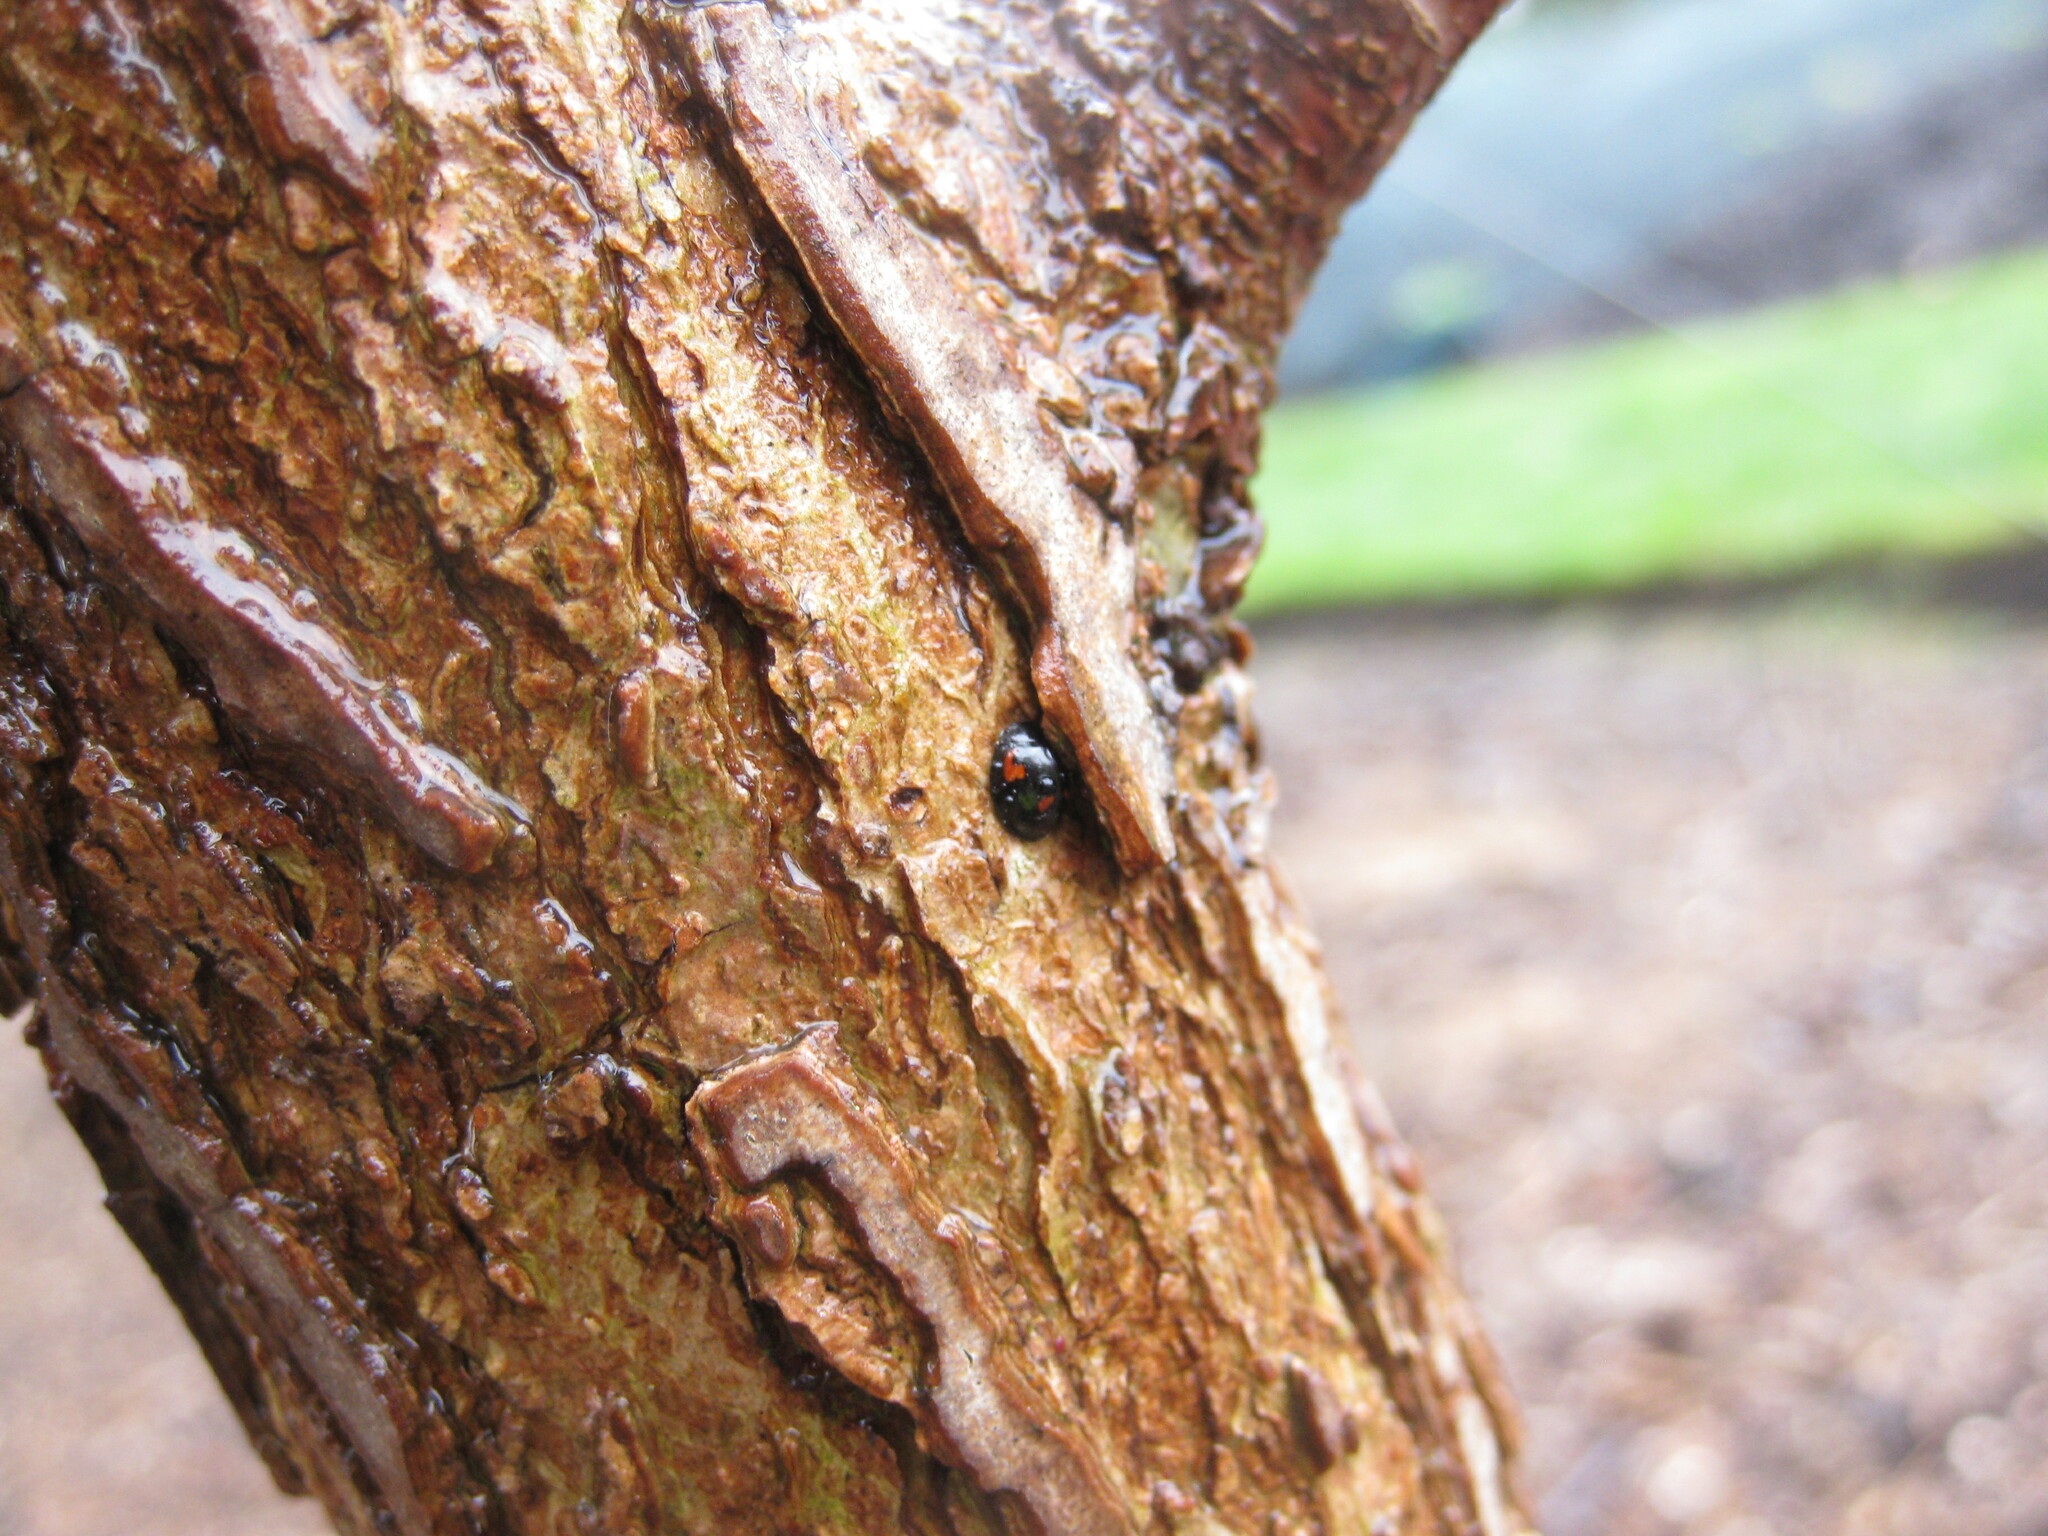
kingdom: Animalia
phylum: Arthropoda
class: Insecta
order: Coleoptera
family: Coccinellidae
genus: Brumus
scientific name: Brumus quadripustulatus
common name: Ladybird beetle
